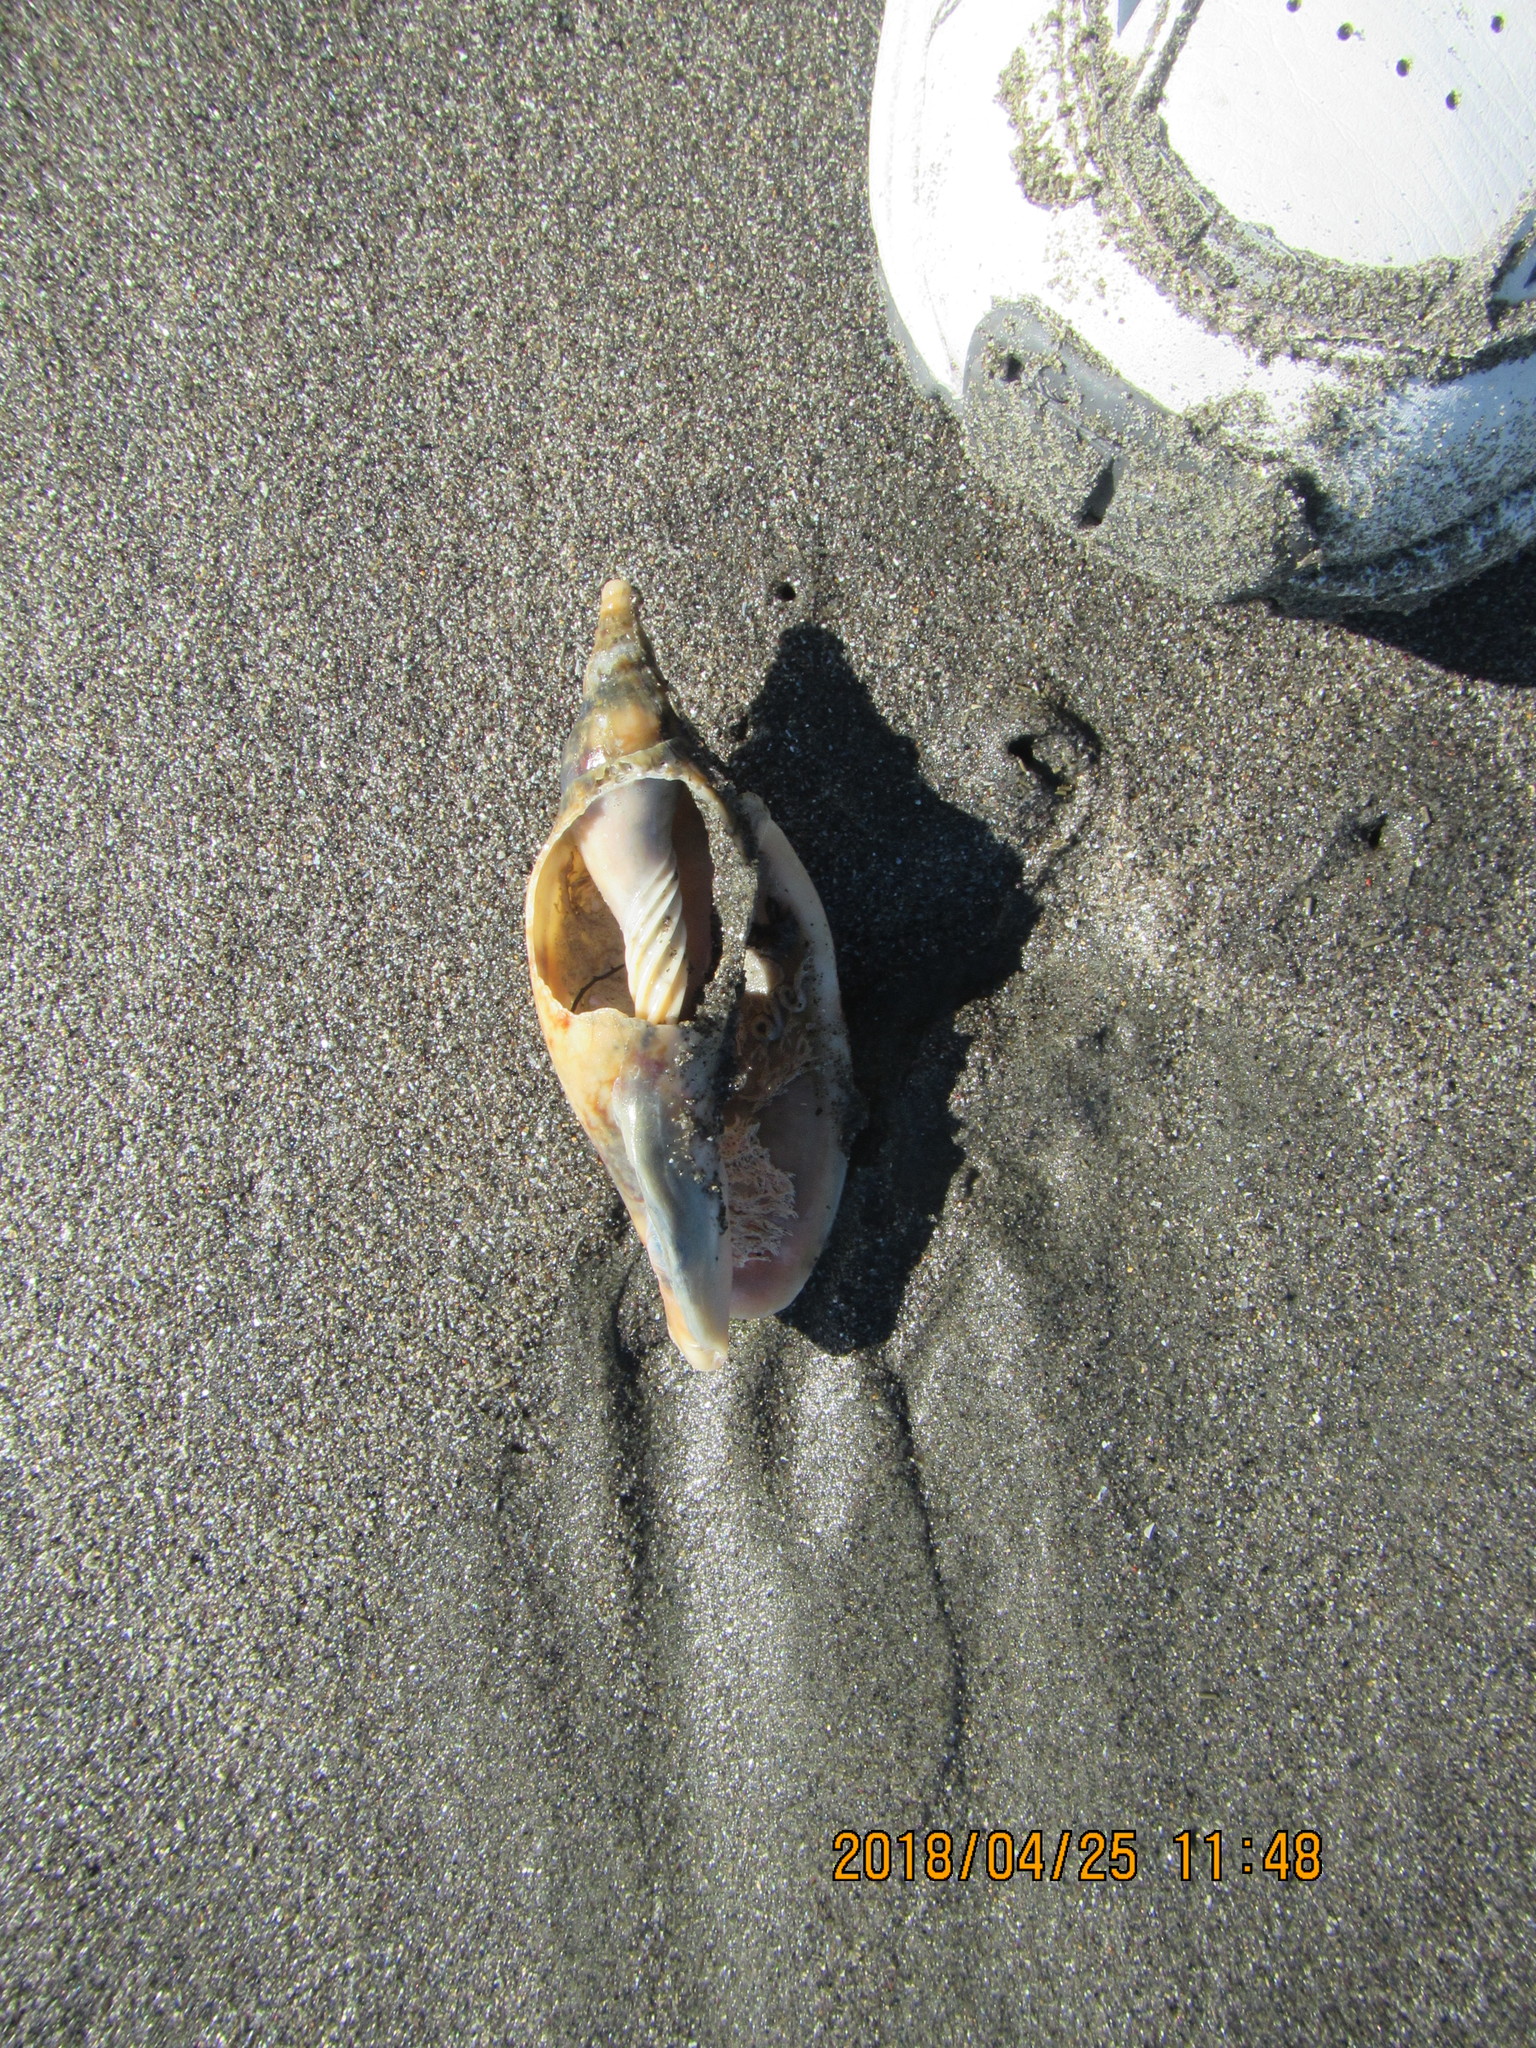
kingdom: Animalia
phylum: Mollusca
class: Gastropoda
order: Neogastropoda
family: Volutidae
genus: Alcithoe
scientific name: Alcithoe arabica
